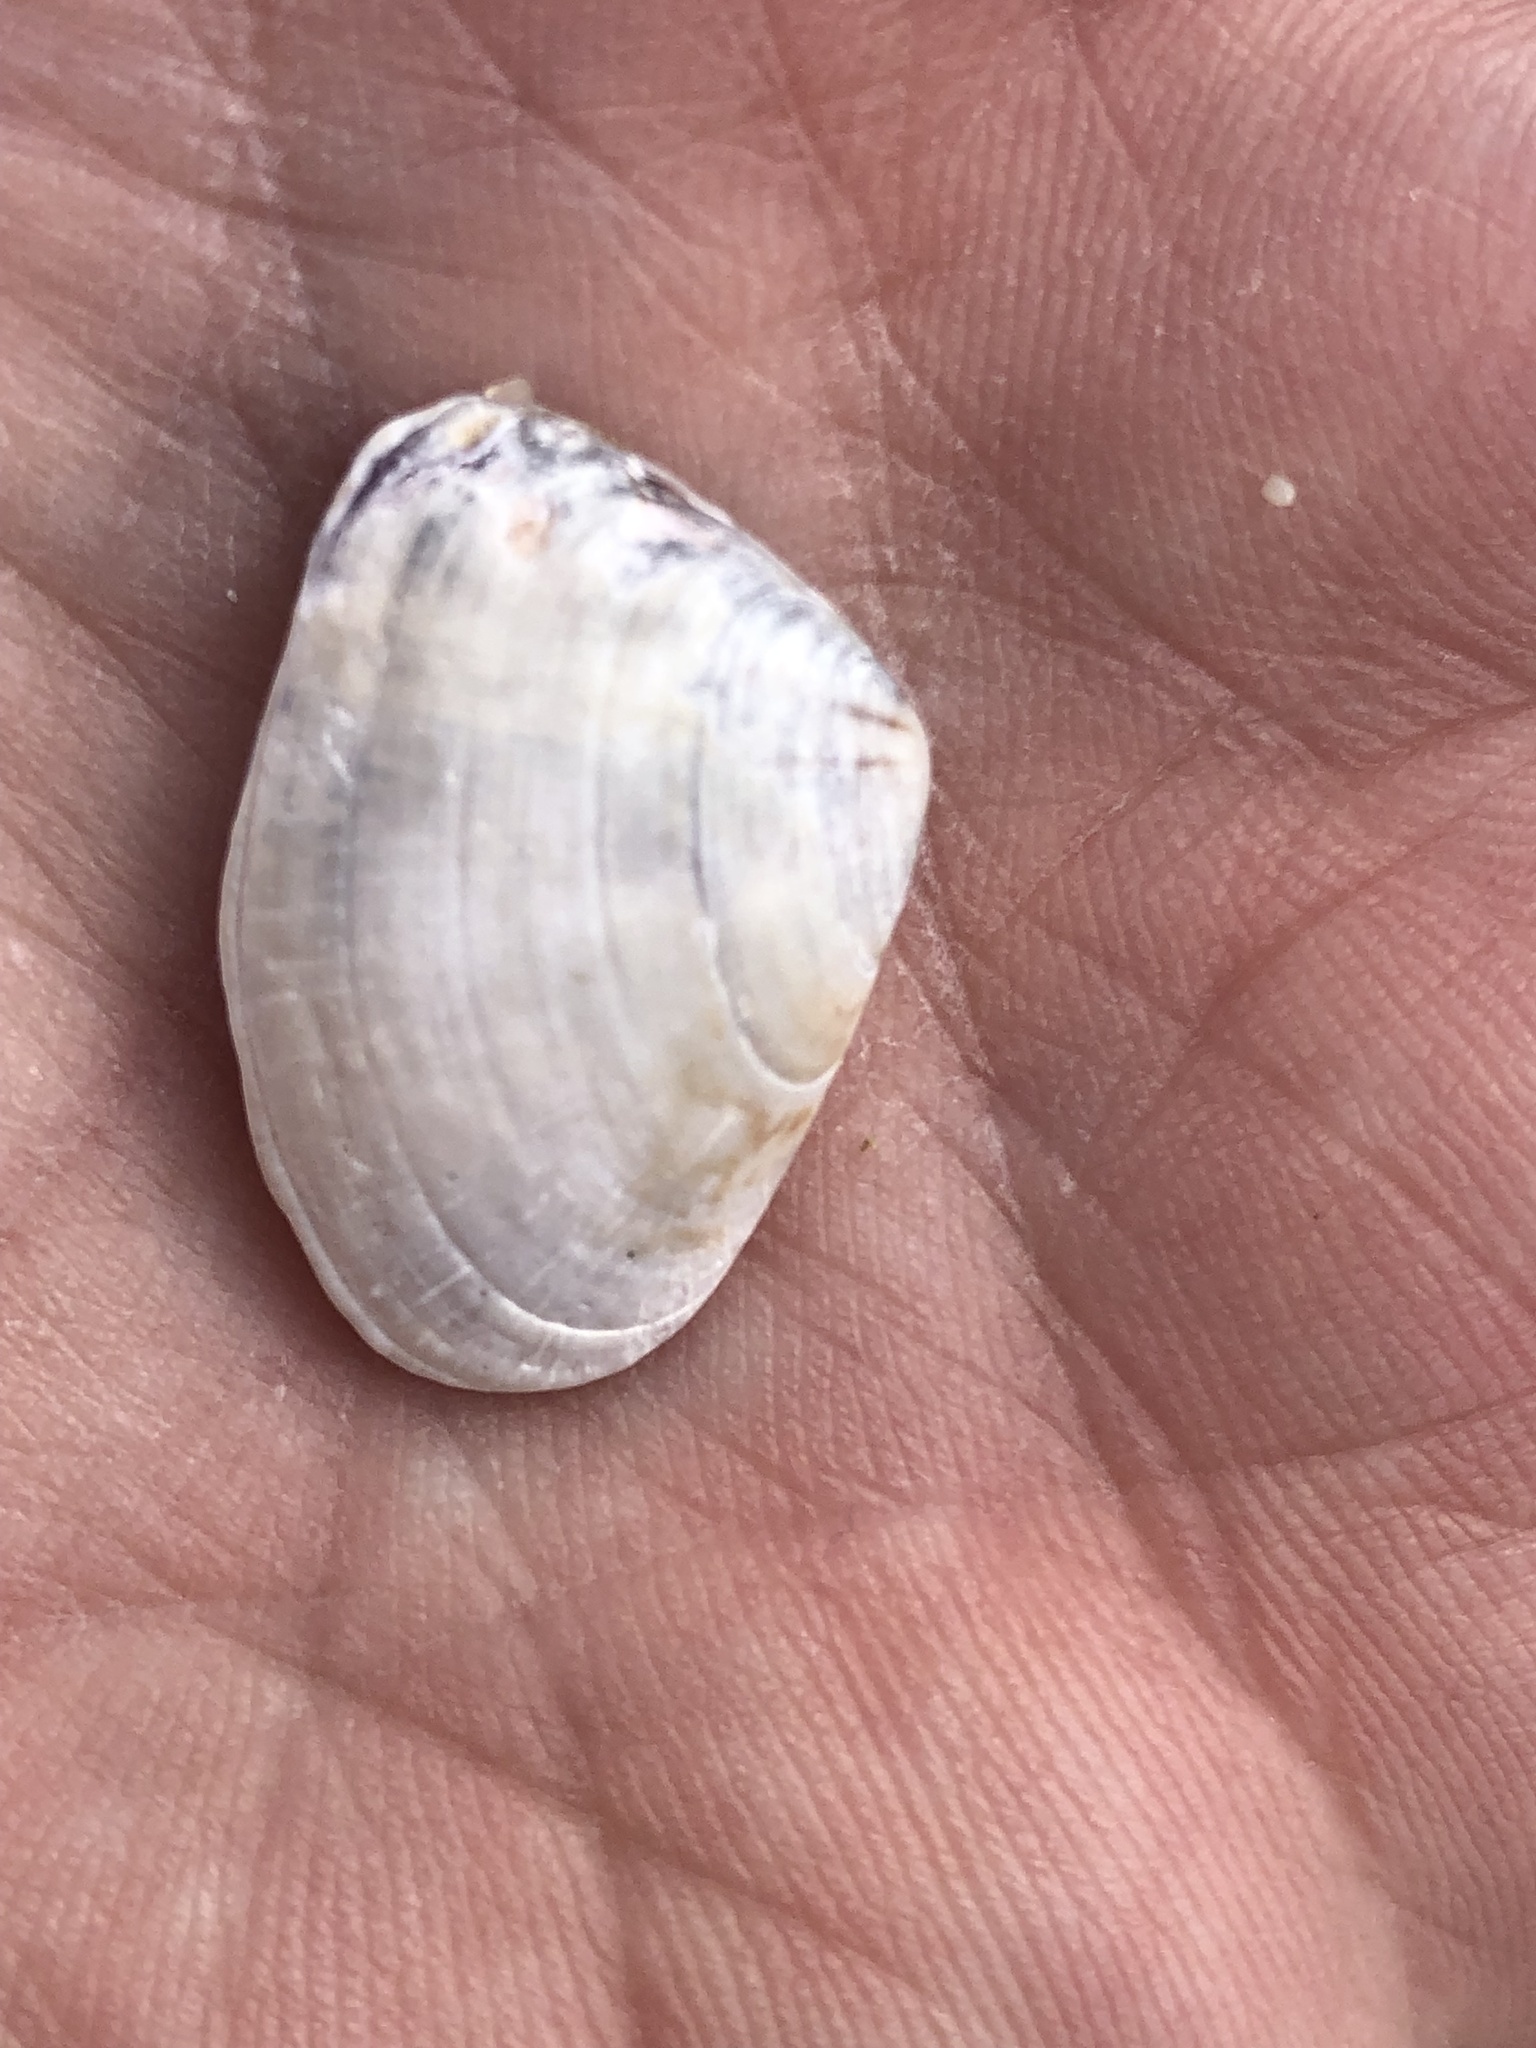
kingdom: Animalia
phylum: Mollusca
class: Bivalvia
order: Cardiida
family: Donacidae
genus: Donax
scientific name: Donax faba
